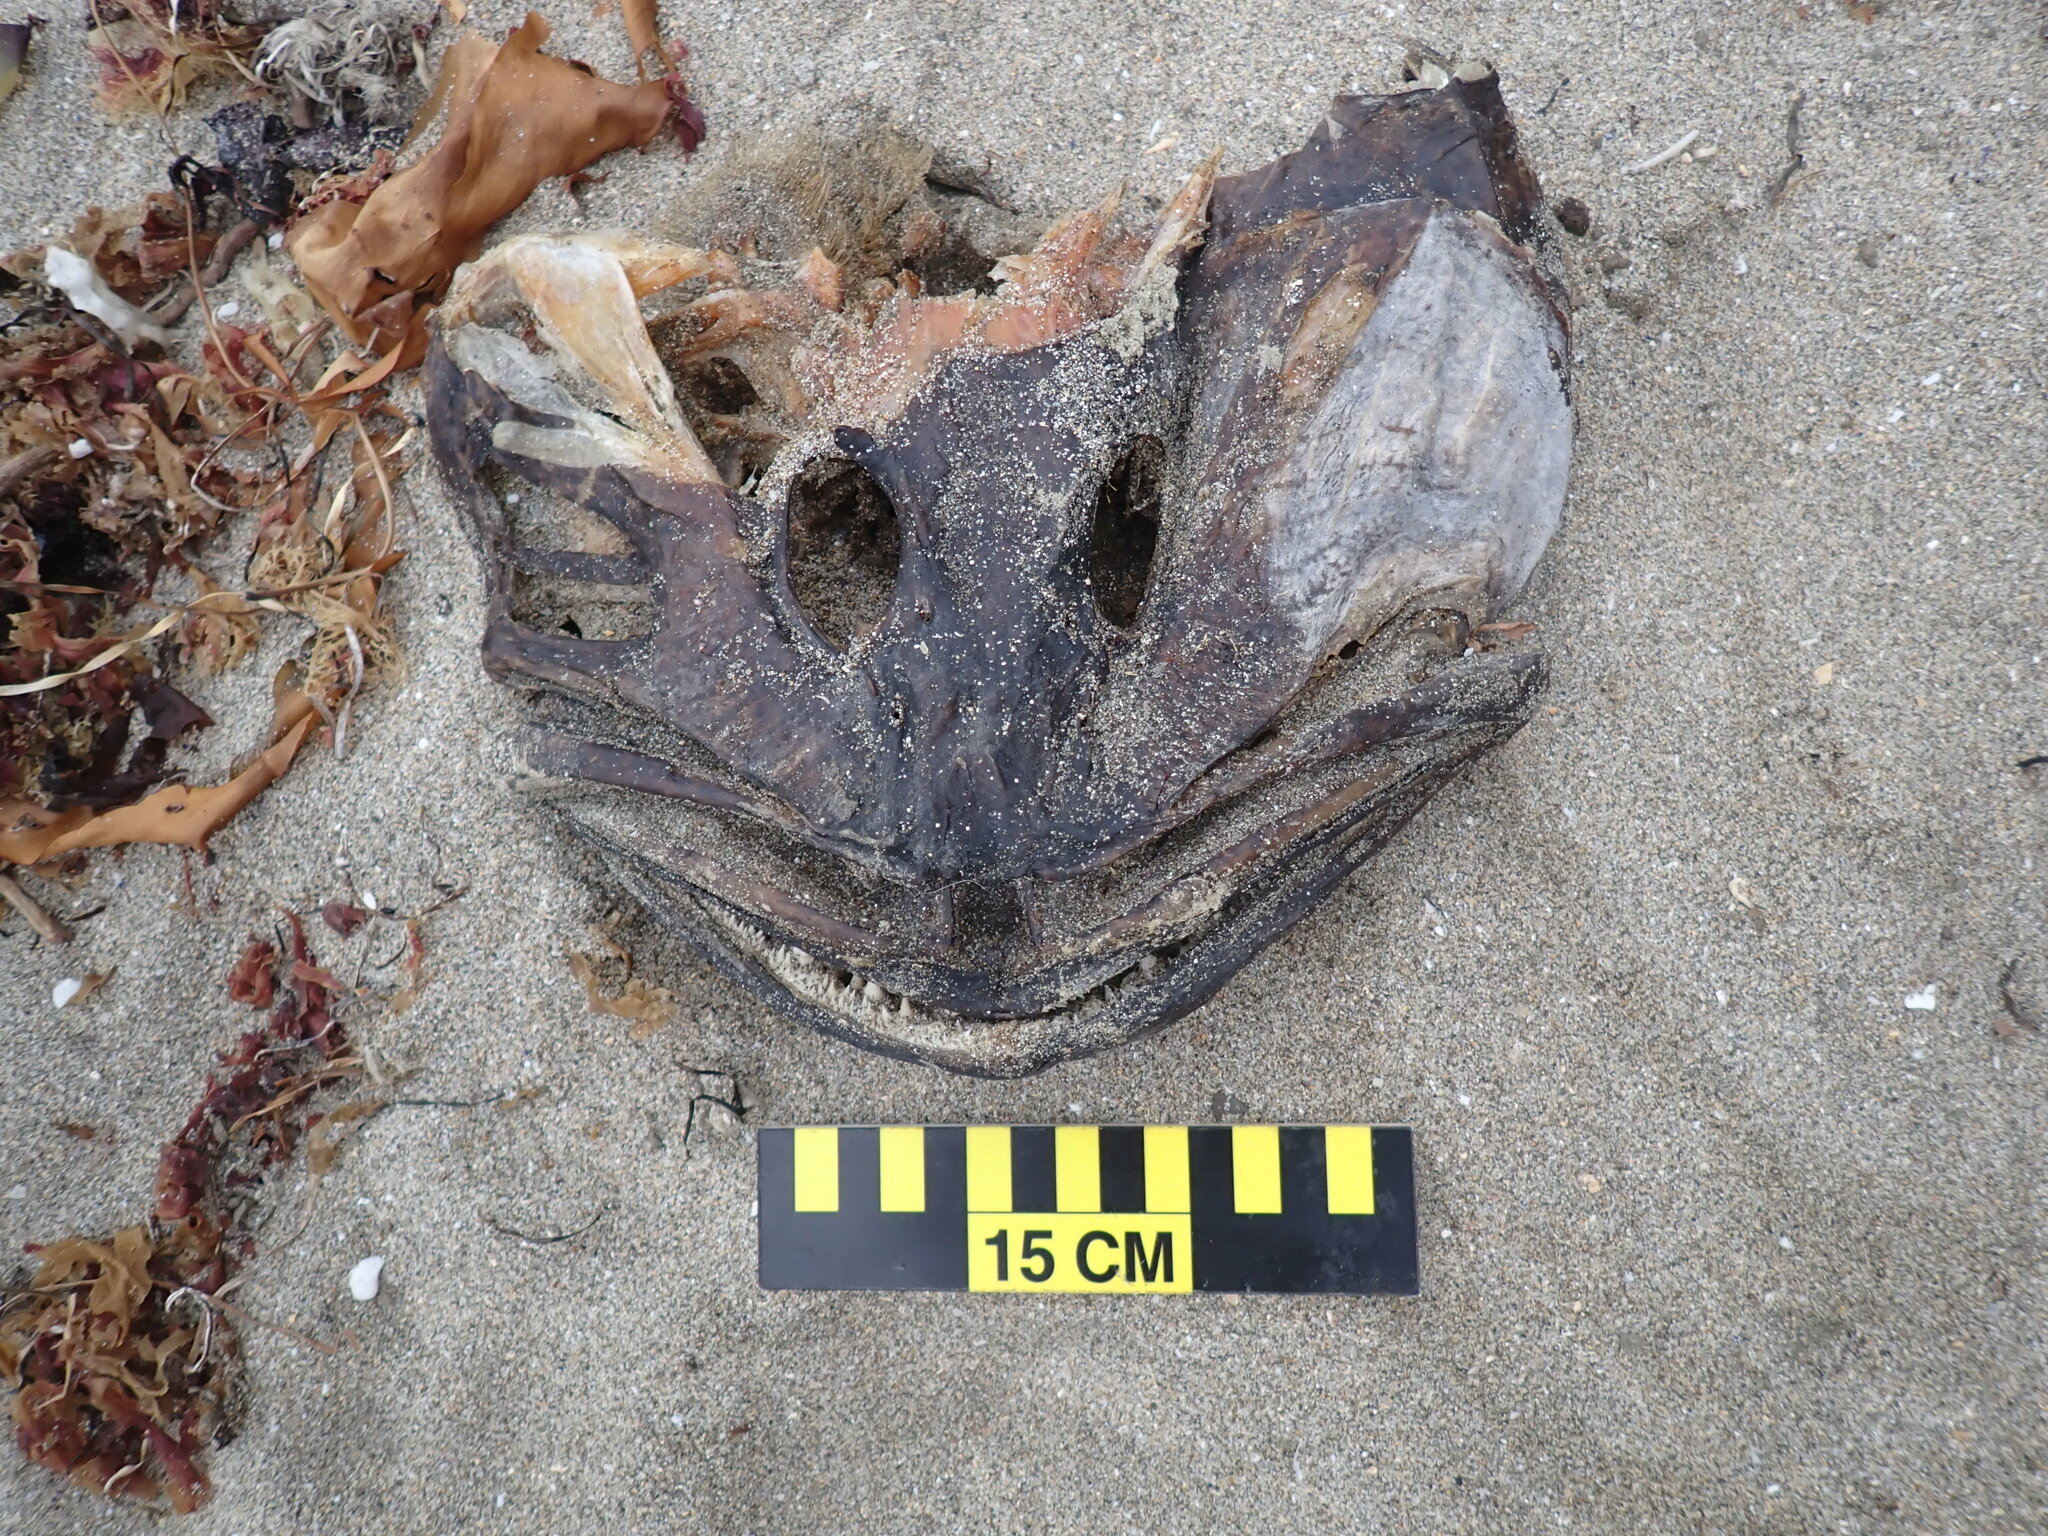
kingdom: Animalia
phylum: Chordata
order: Scorpaeniformes
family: Hexagrammidae
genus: Ophiodon
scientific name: Ophiodon elongatus
